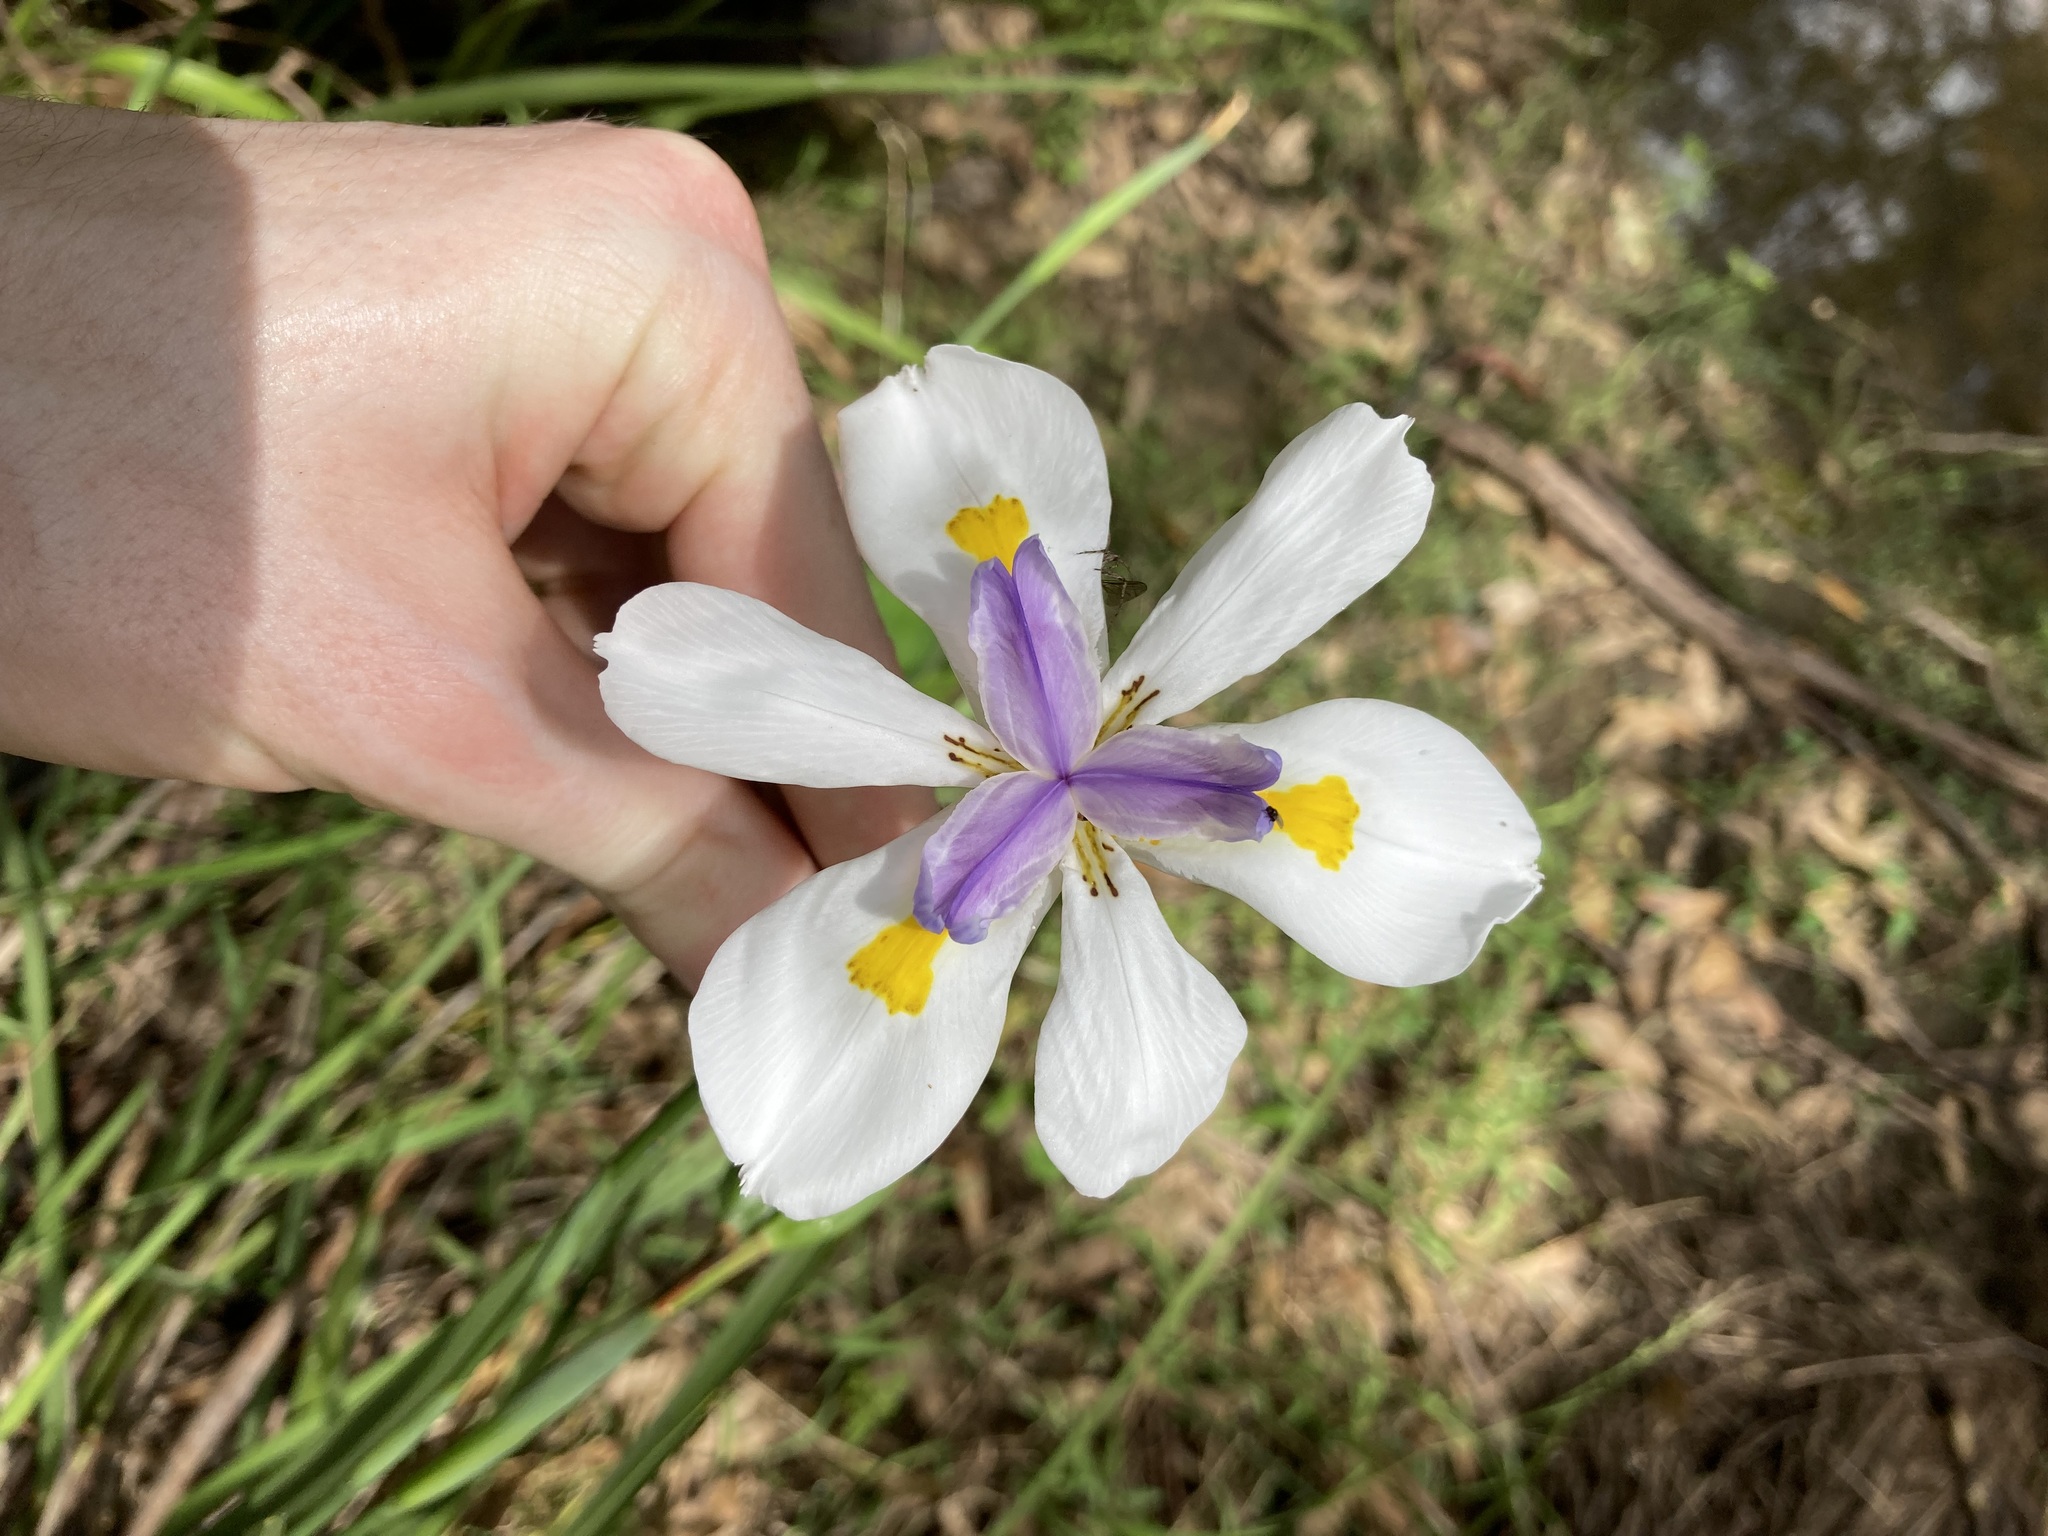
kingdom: Plantae
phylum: Tracheophyta
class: Liliopsida
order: Asparagales
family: Iridaceae
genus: Dietes
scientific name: Dietes grandiflora
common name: Wild iris
